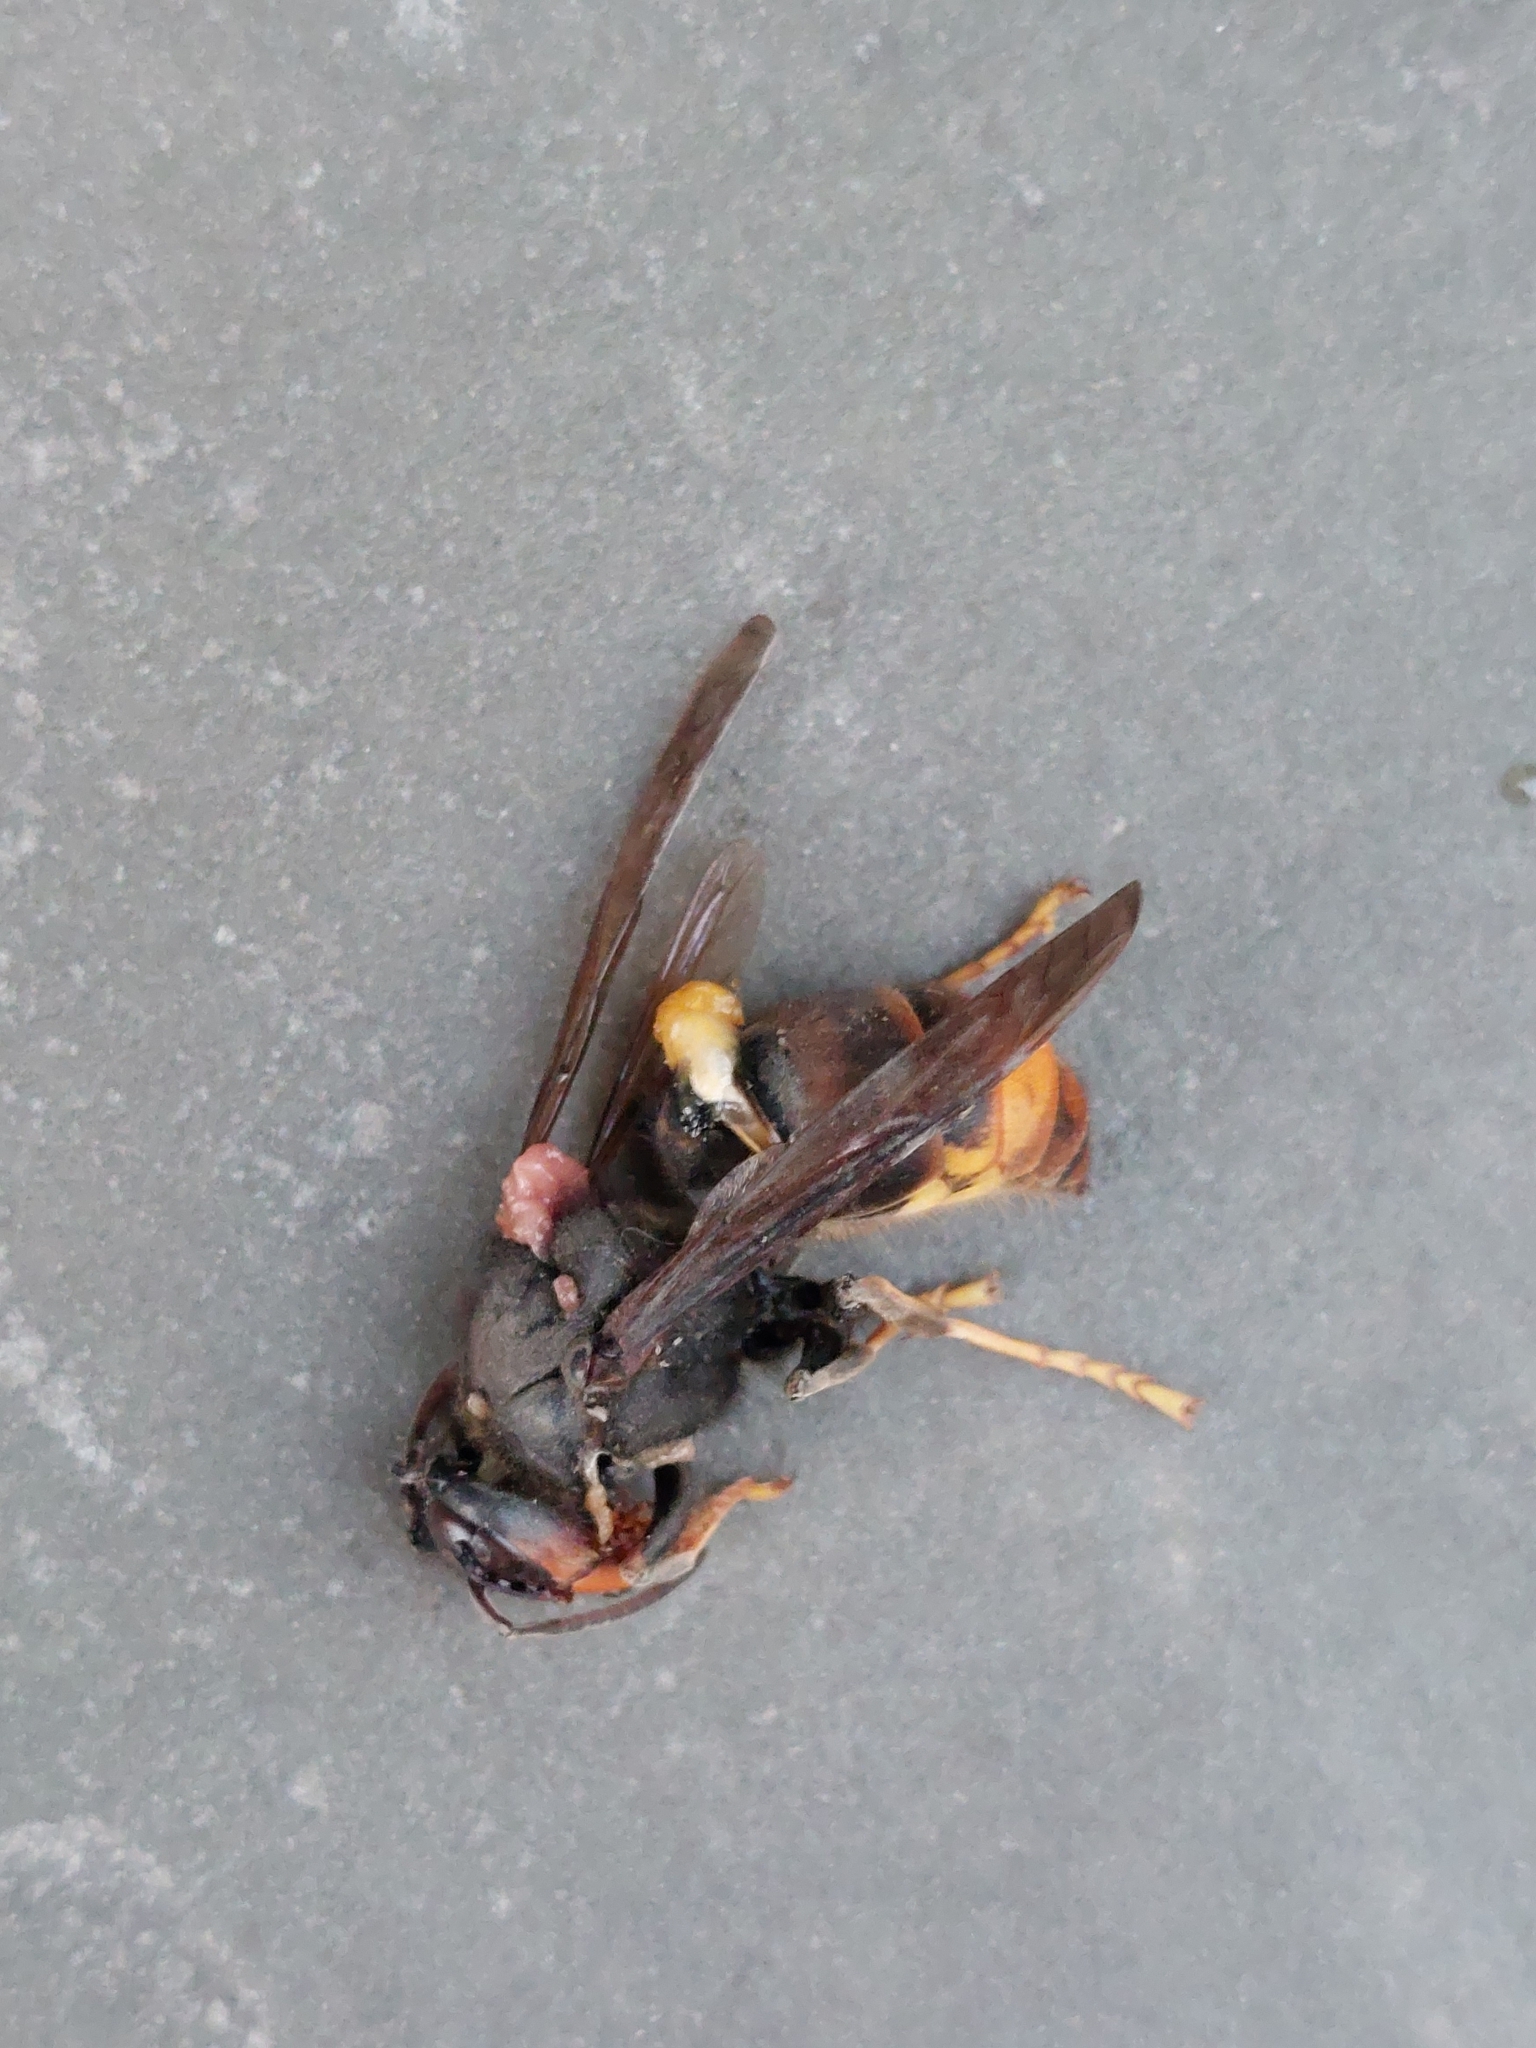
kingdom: Animalia
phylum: Arthropoda
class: Insecta
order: Hymenoptera
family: Vespidae
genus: Vespa
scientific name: Vespa velutina
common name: Asian hornet
